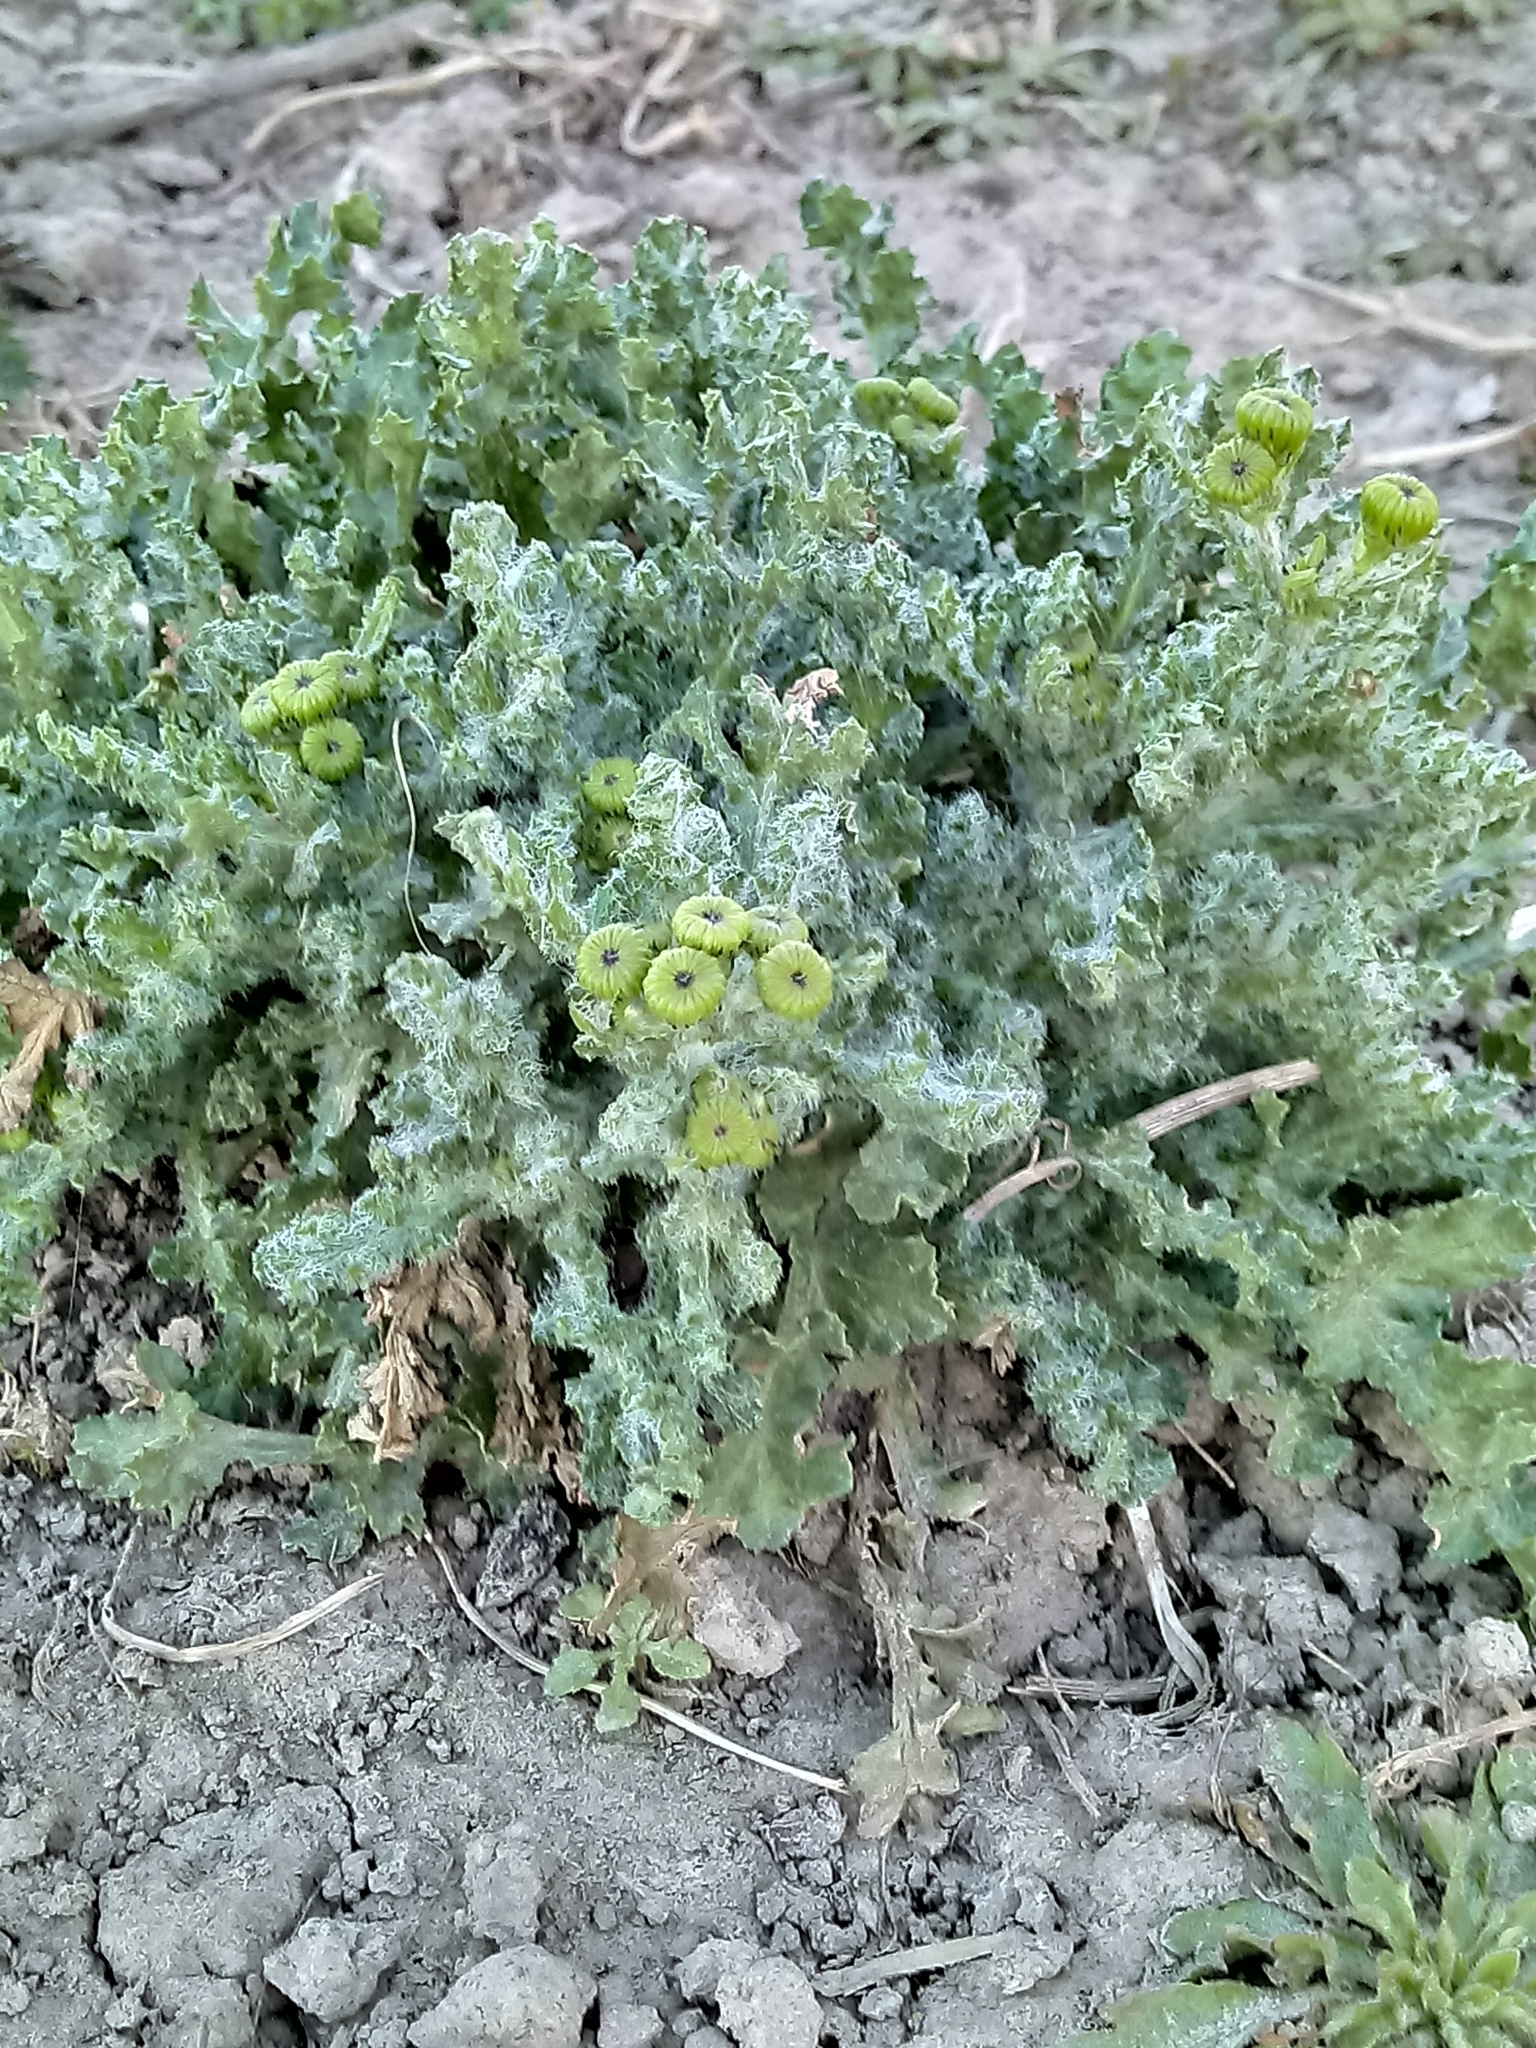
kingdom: Plantae
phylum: Tracheophyta
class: Magnoliopsida
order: Asterales
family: Asteraceae
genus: Senecio
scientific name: Senecio vernalis
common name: Eastern groundsel
